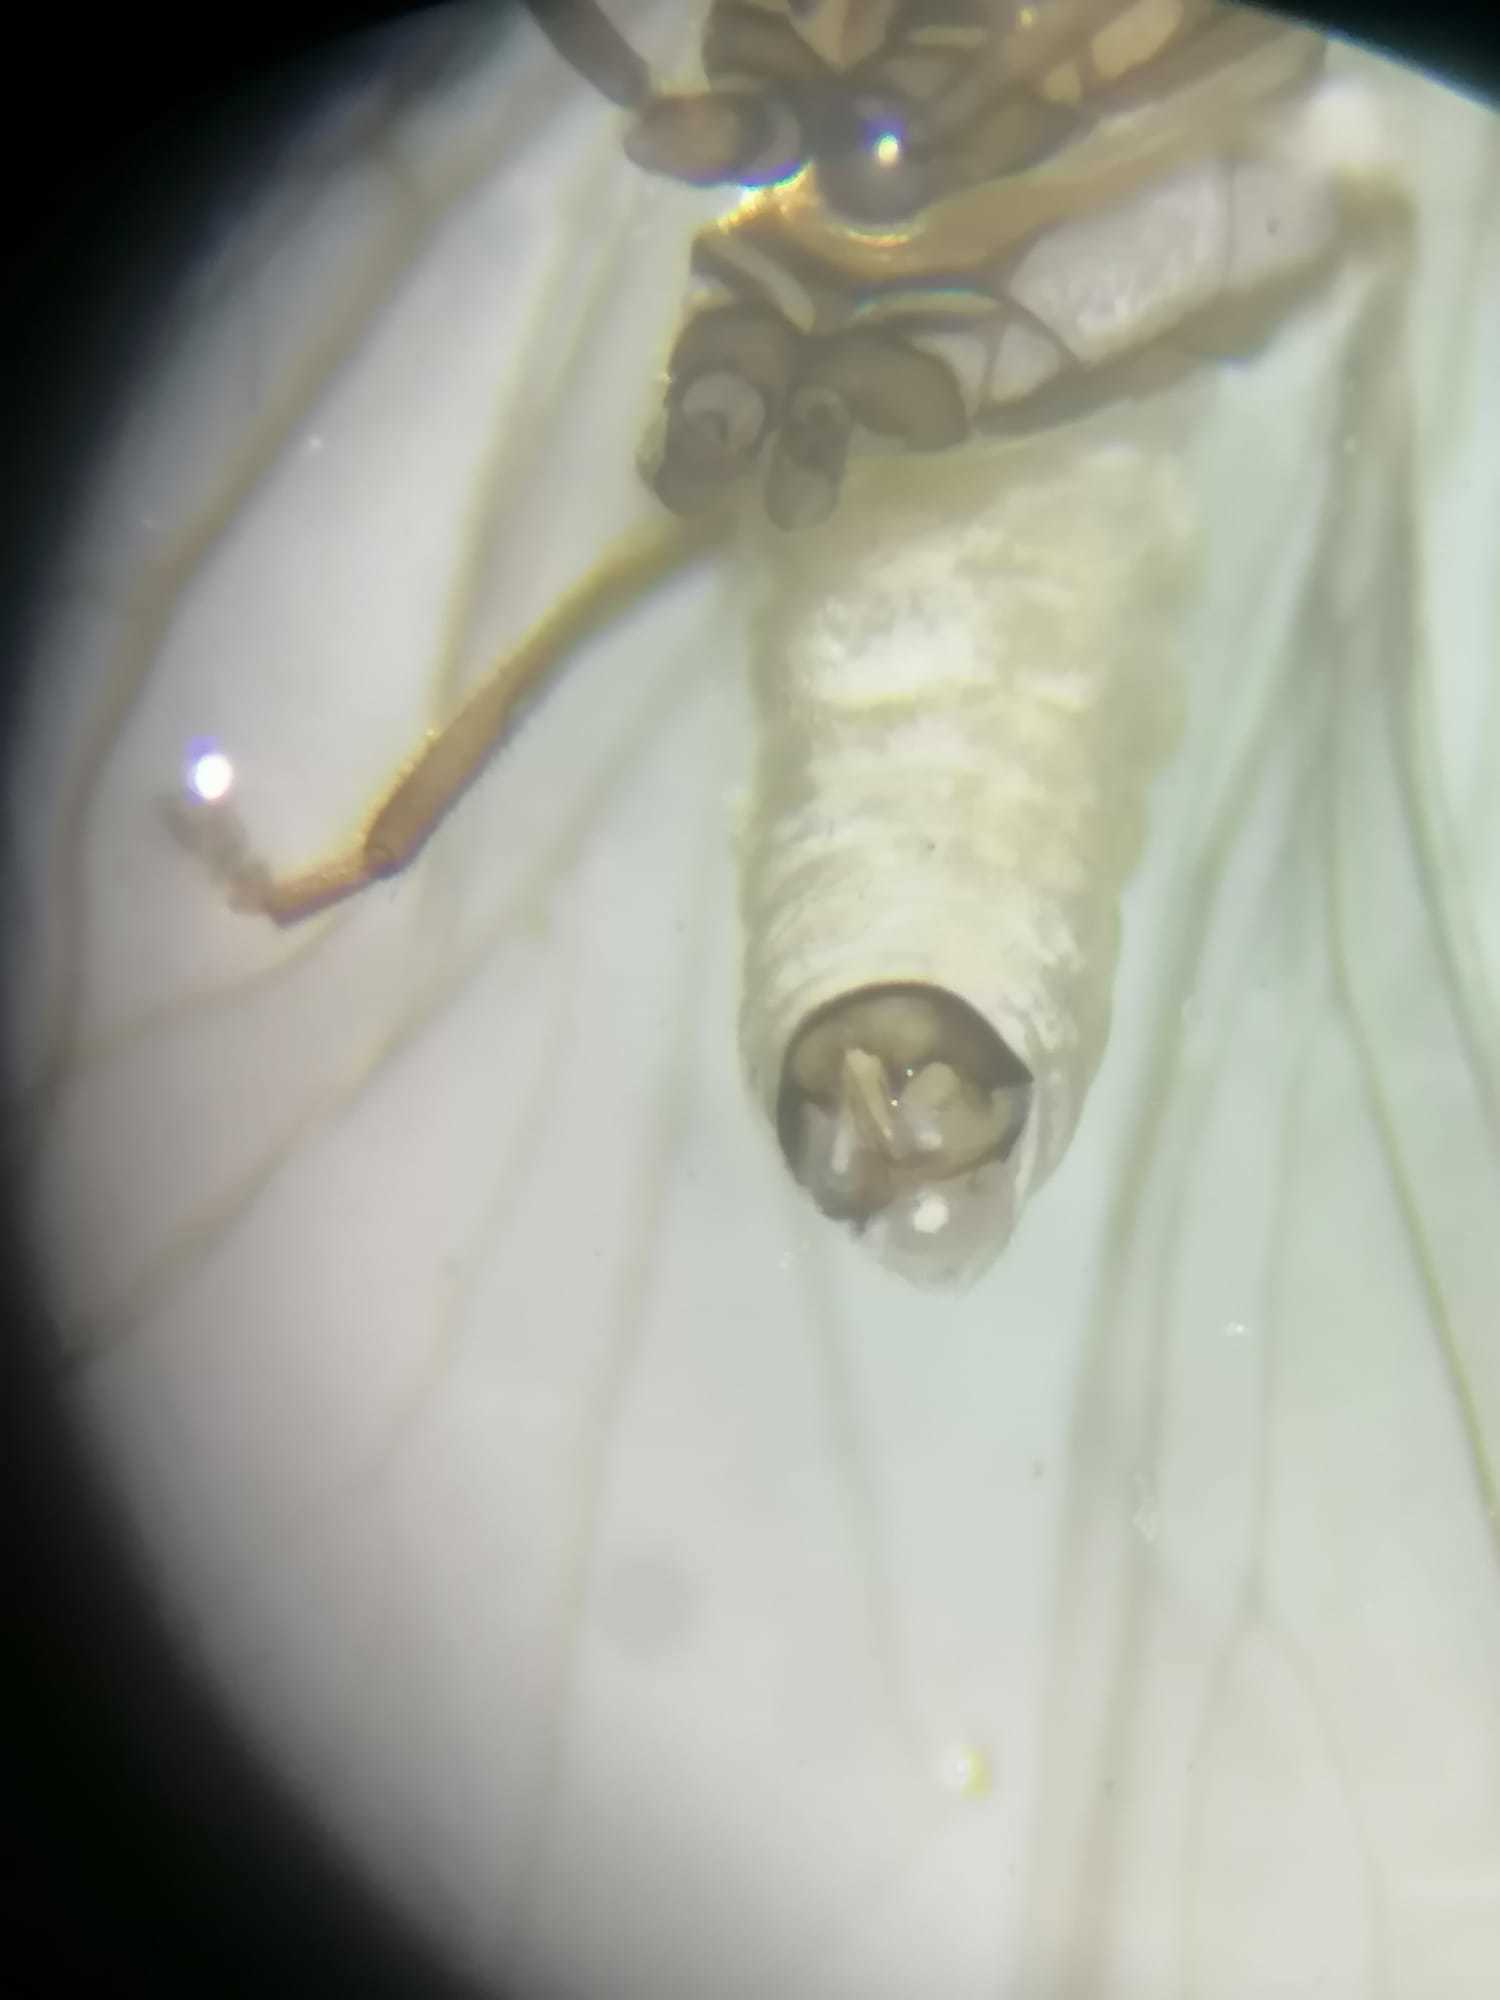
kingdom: Animalia
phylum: Arthropoda
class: Insecta
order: Neuroptera
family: Coniopterygidae
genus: Coniopteryx
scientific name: Coniopteryx pygmaea
